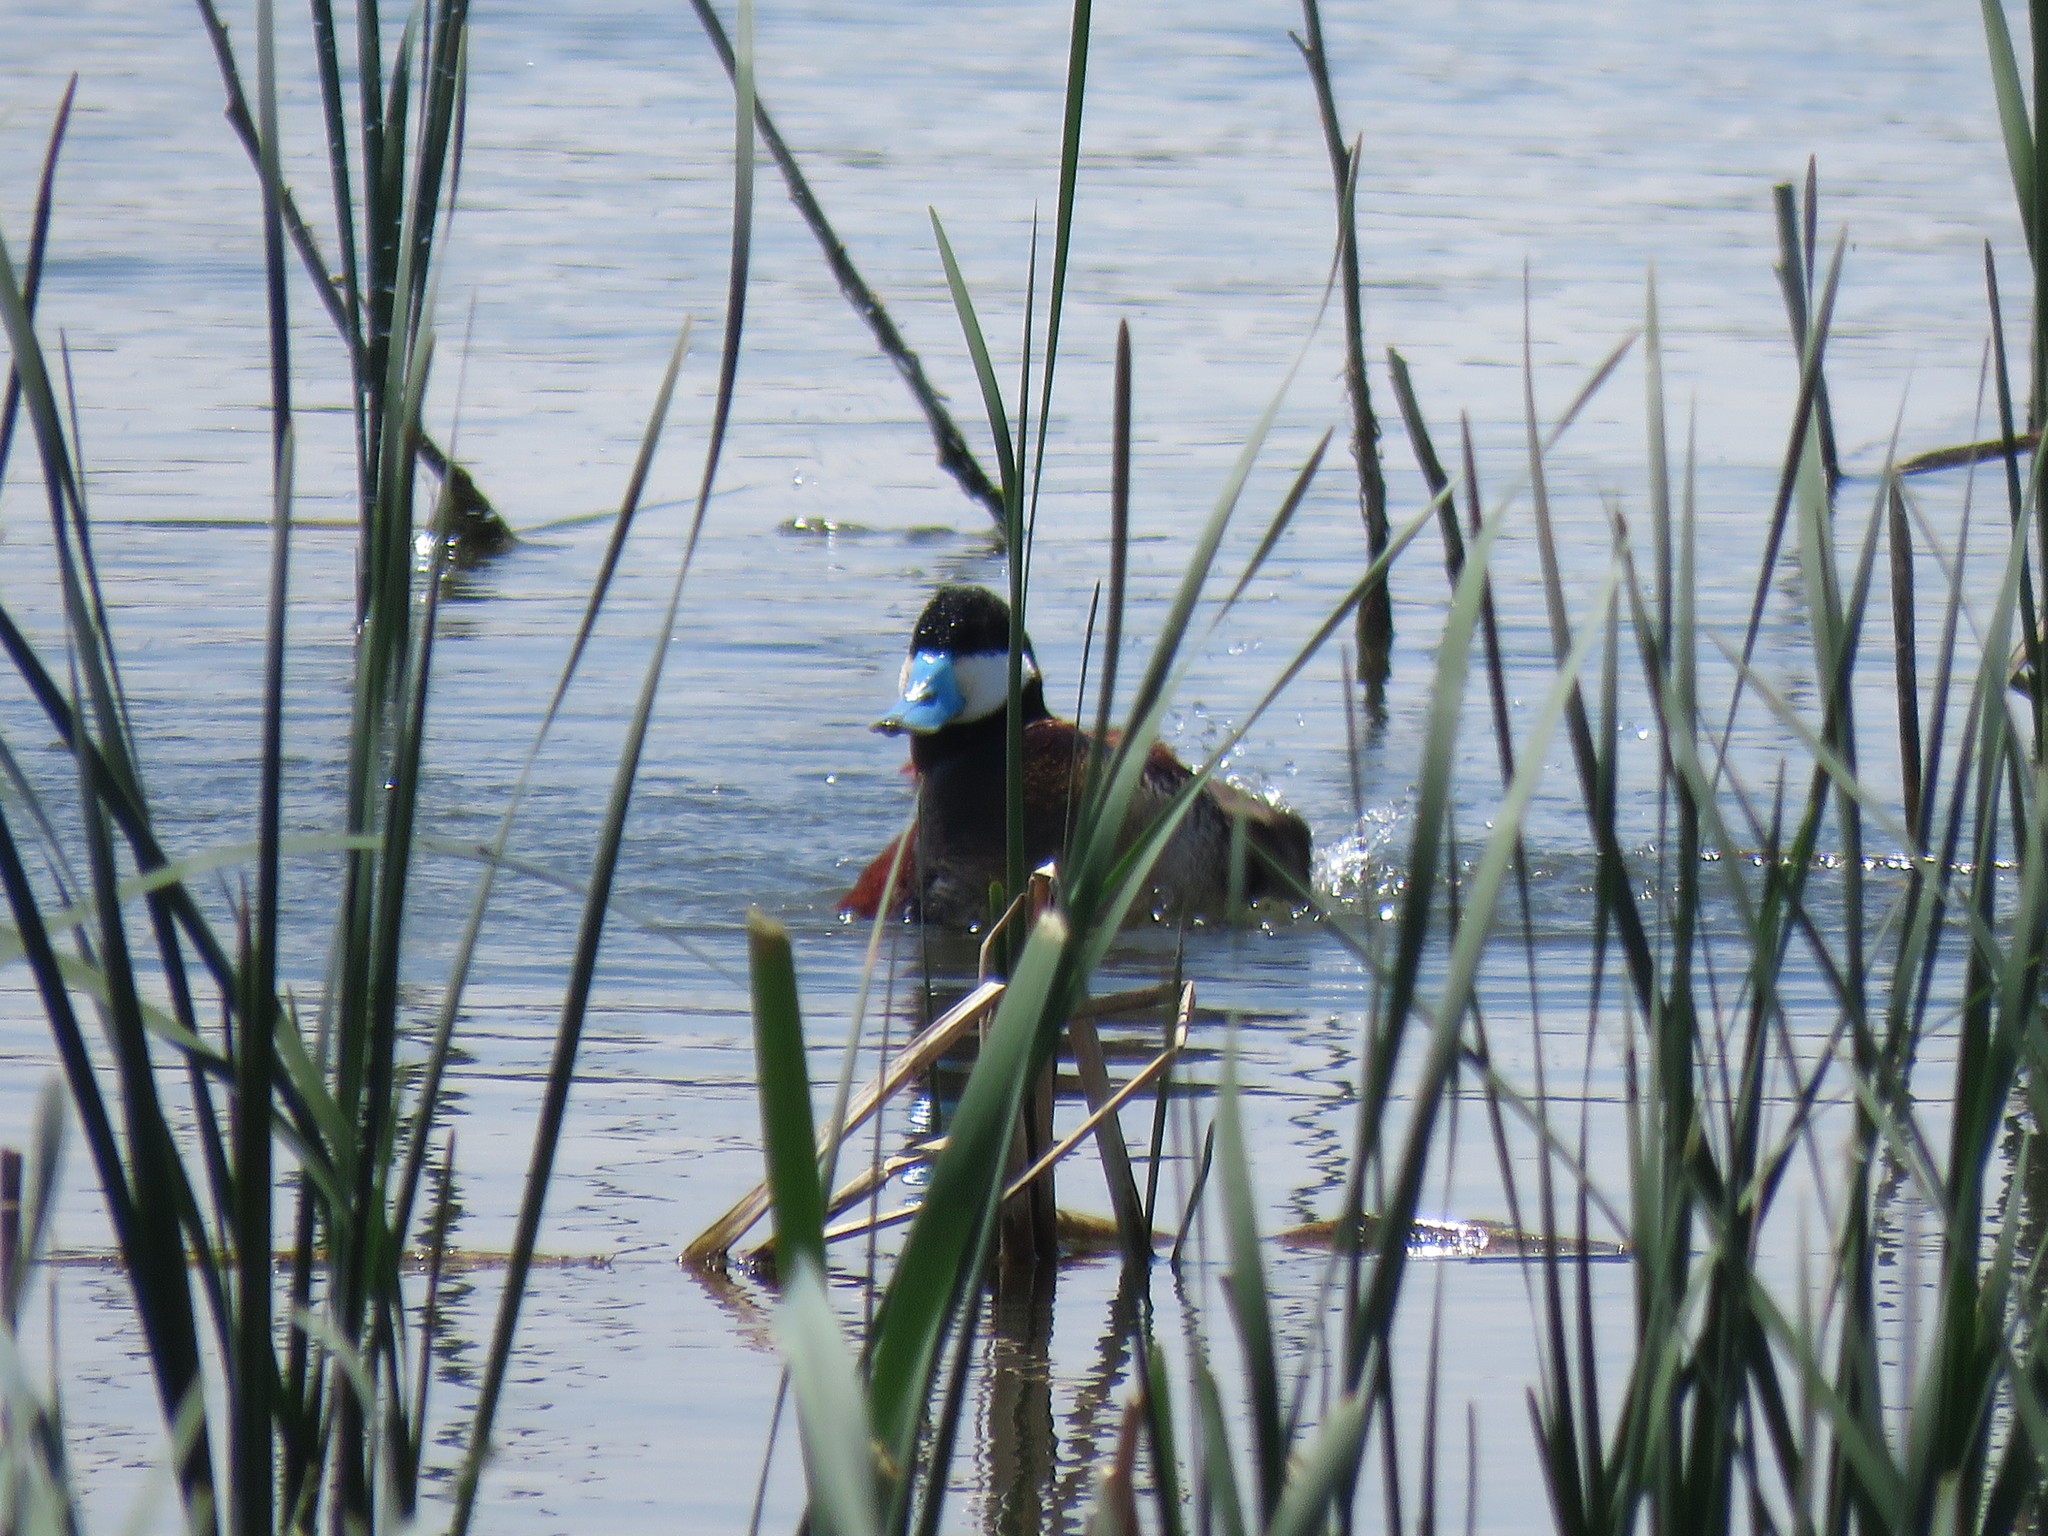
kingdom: Animalia
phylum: Chordata
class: Aves
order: Anseriformes
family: Anatidae
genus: Oxyura
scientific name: Oxyura jamaicensis
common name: Ruddy duck
